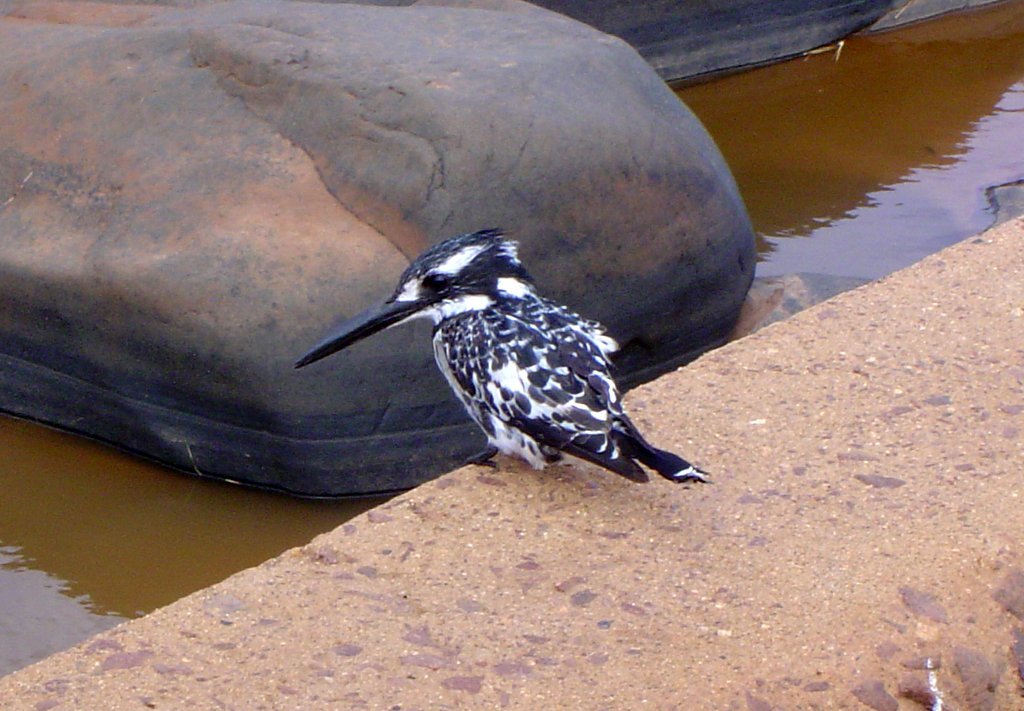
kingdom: Animalia
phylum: Chordata
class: Aves
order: Coraciiformes
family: Alcedinidae
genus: Ceryle
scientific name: Ceryle rudis
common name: Pied kingfisher
